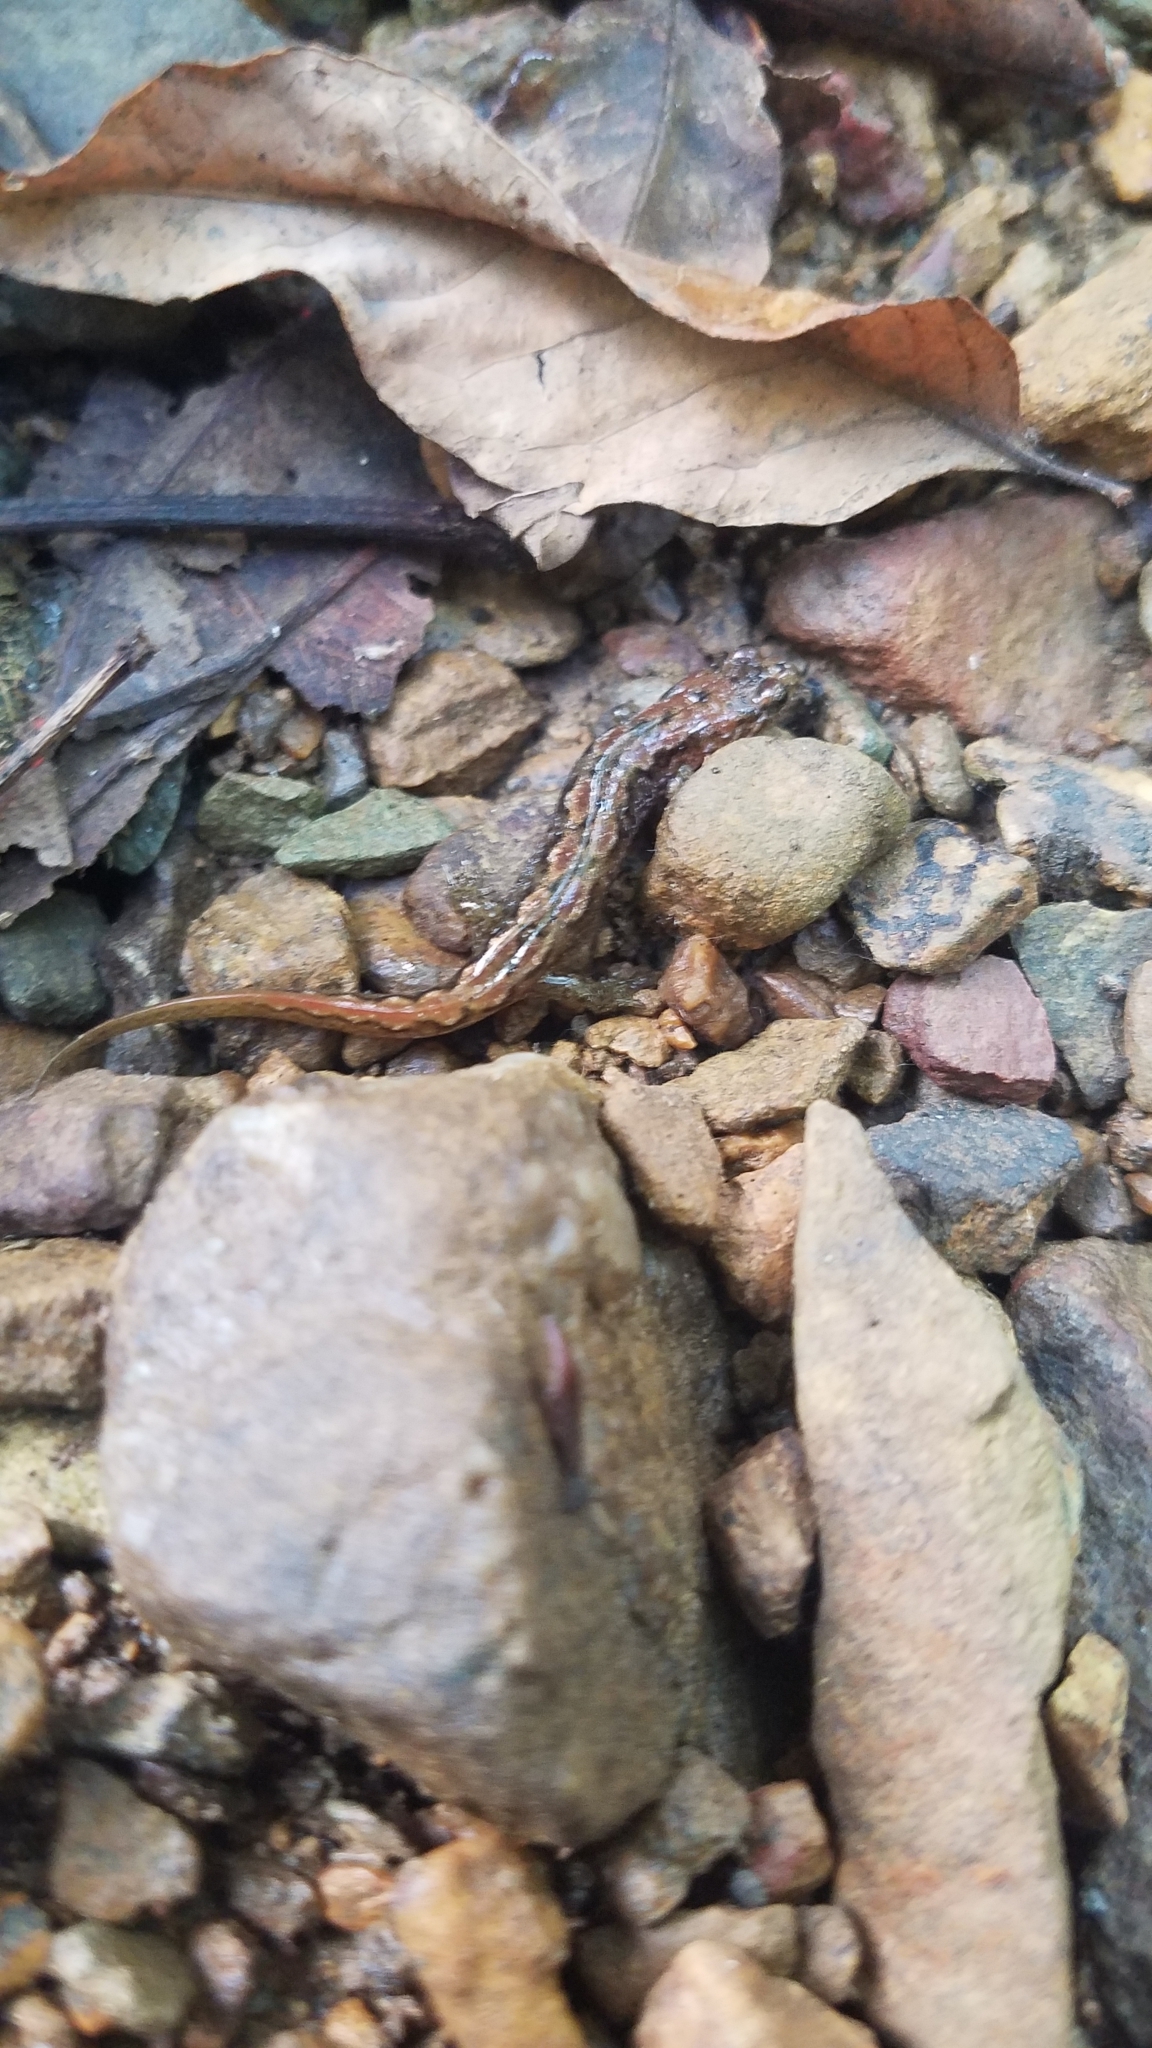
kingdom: Animalia
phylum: Chordata
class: Amphibia
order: Caudata
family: Plethodontidae
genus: Desmognathus
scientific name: Desmognathus fuscus
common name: Northern dusky salamander
